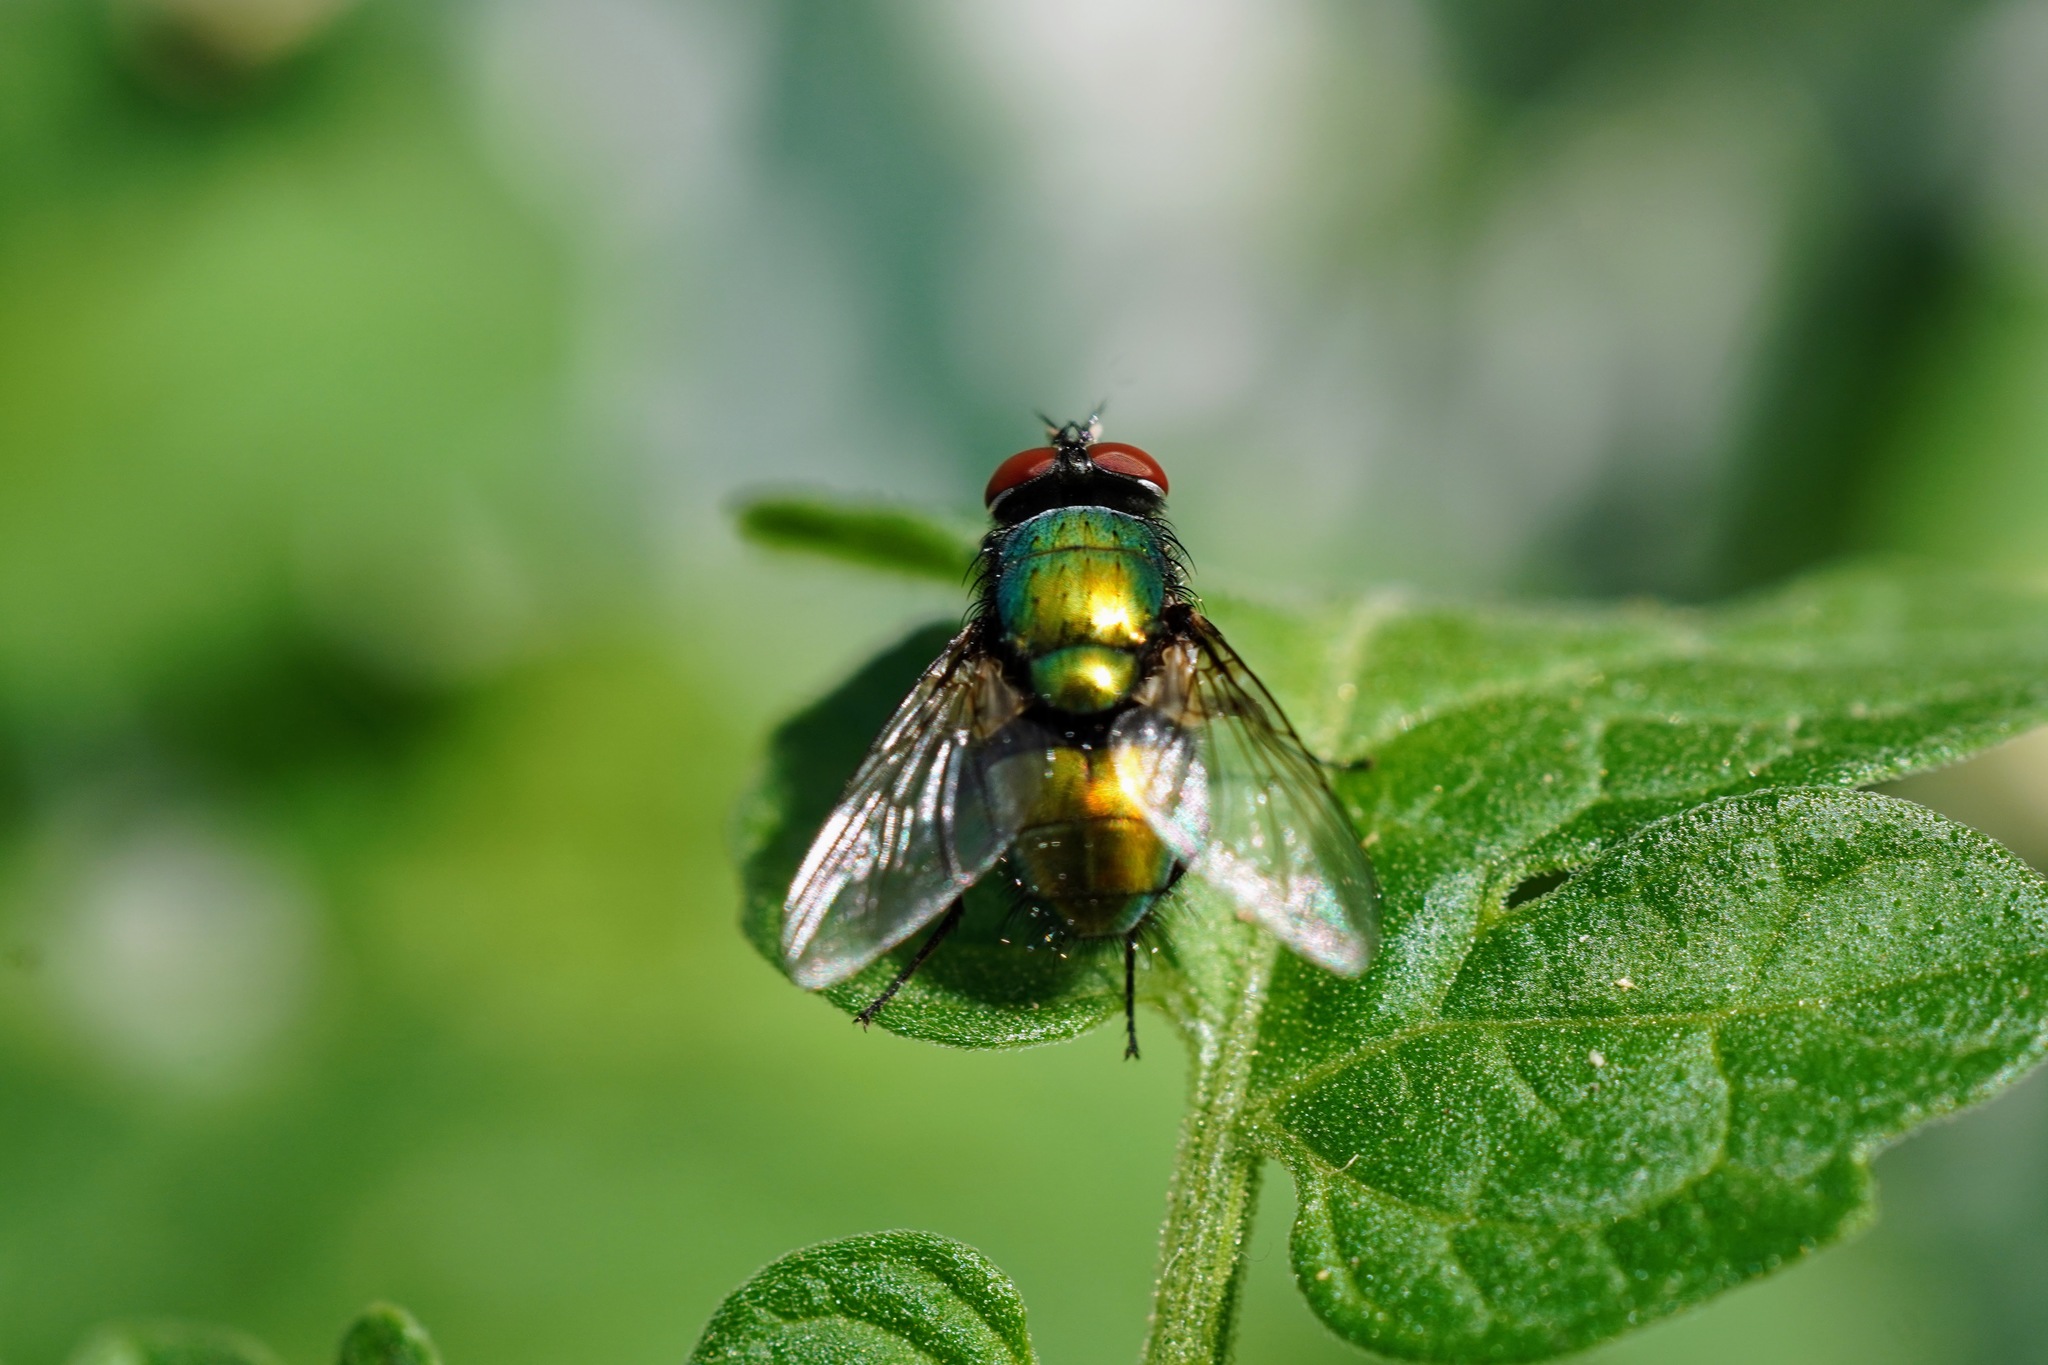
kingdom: Animalia
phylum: Arthropoda
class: Insecta
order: Diptera
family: Calliphoridae
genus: Lucilia
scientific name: Lucilia sericata
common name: Blow fly
